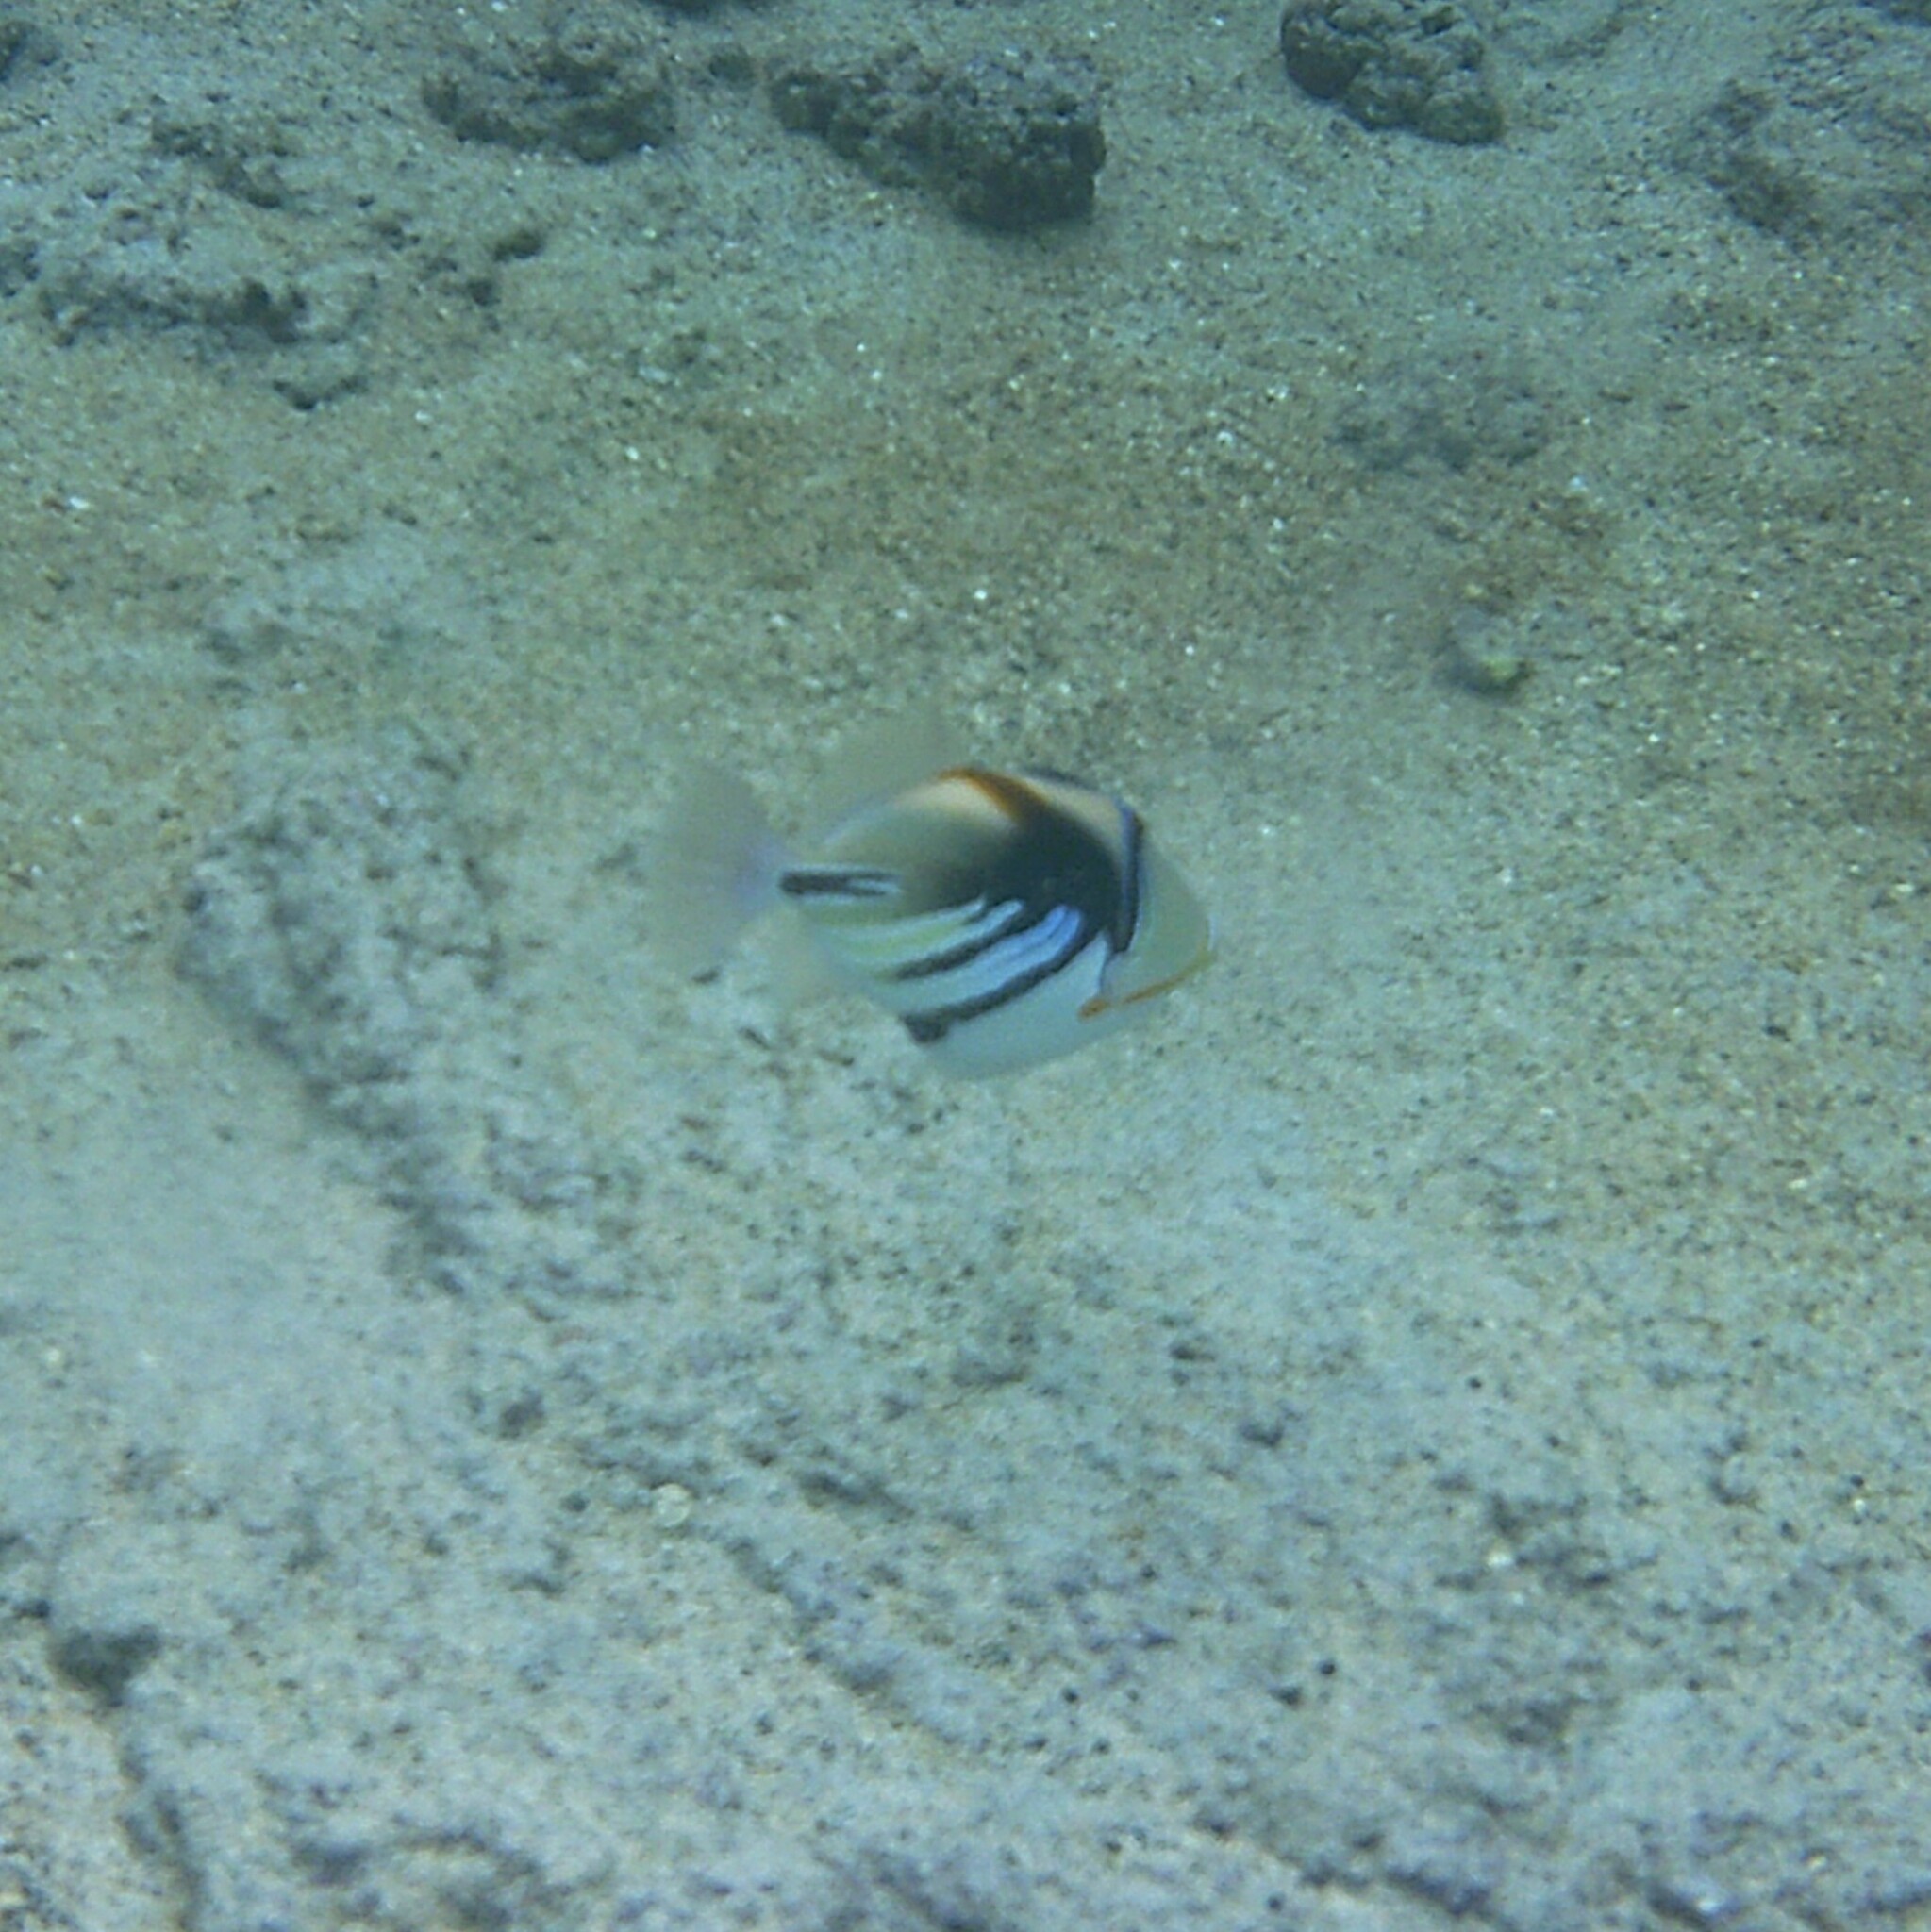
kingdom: Animalia
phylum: Chordata
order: Tetraodontiformes
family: Balistidae
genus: Rhinecanthus
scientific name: Rhinecanthus aculeatus
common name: White-banded triggerfish
